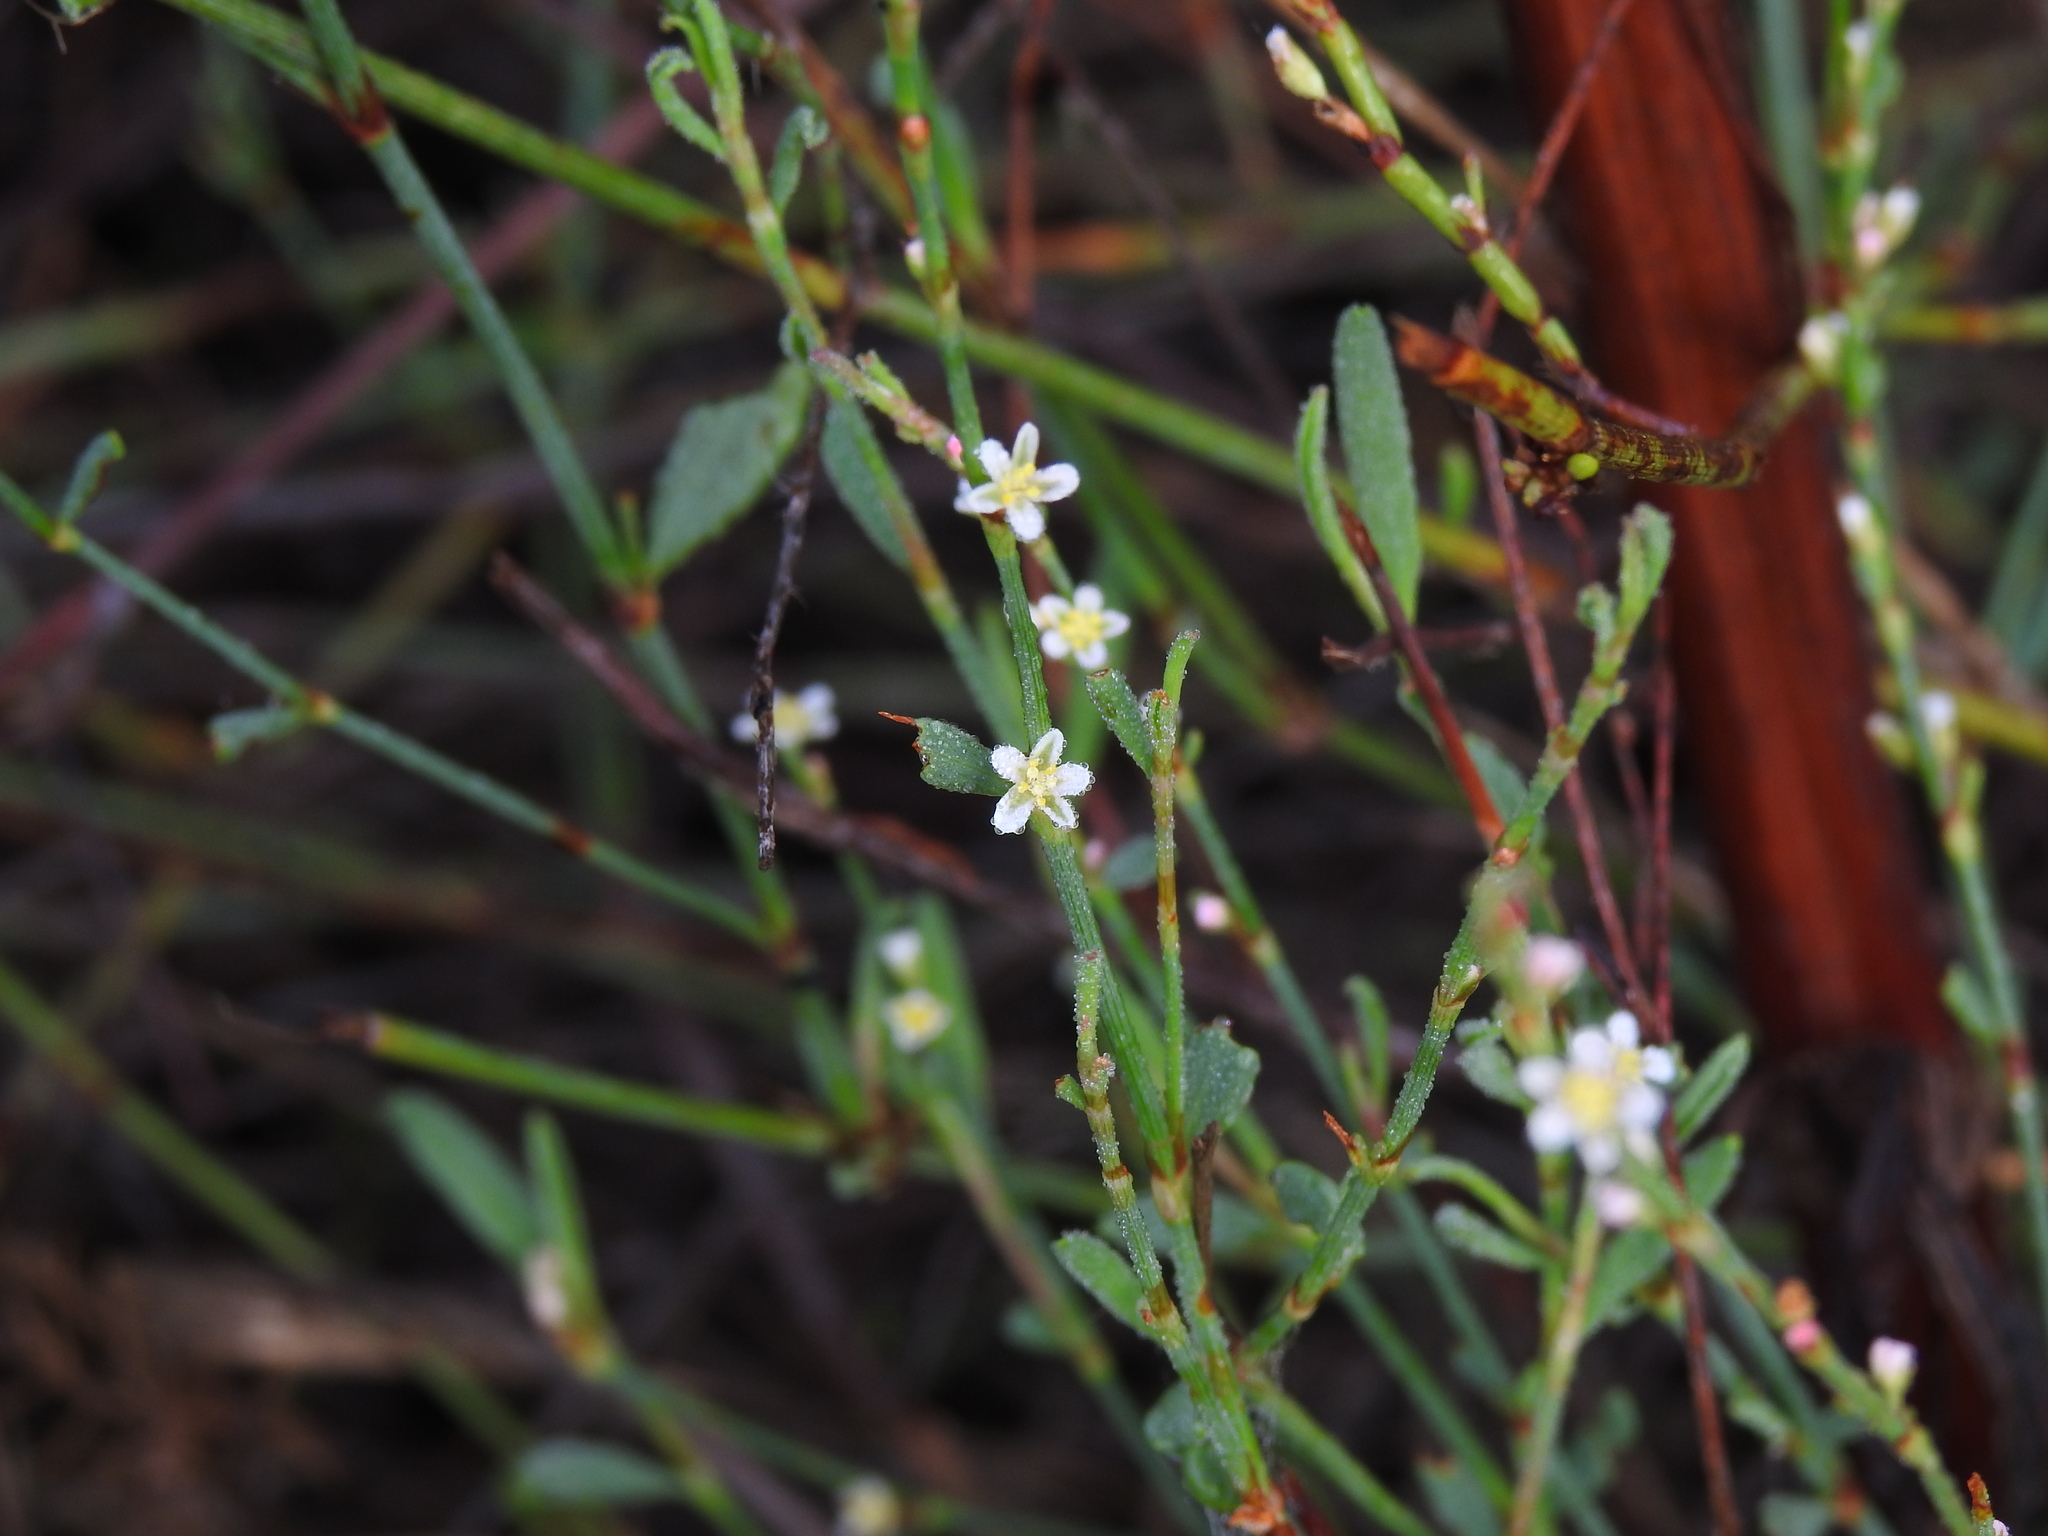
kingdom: Plantae
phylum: Tracheophyta
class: Magnoliopsida
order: Caryophyllales
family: Polygonaceae
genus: Polygonum
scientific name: Polygonum equisetiforme
